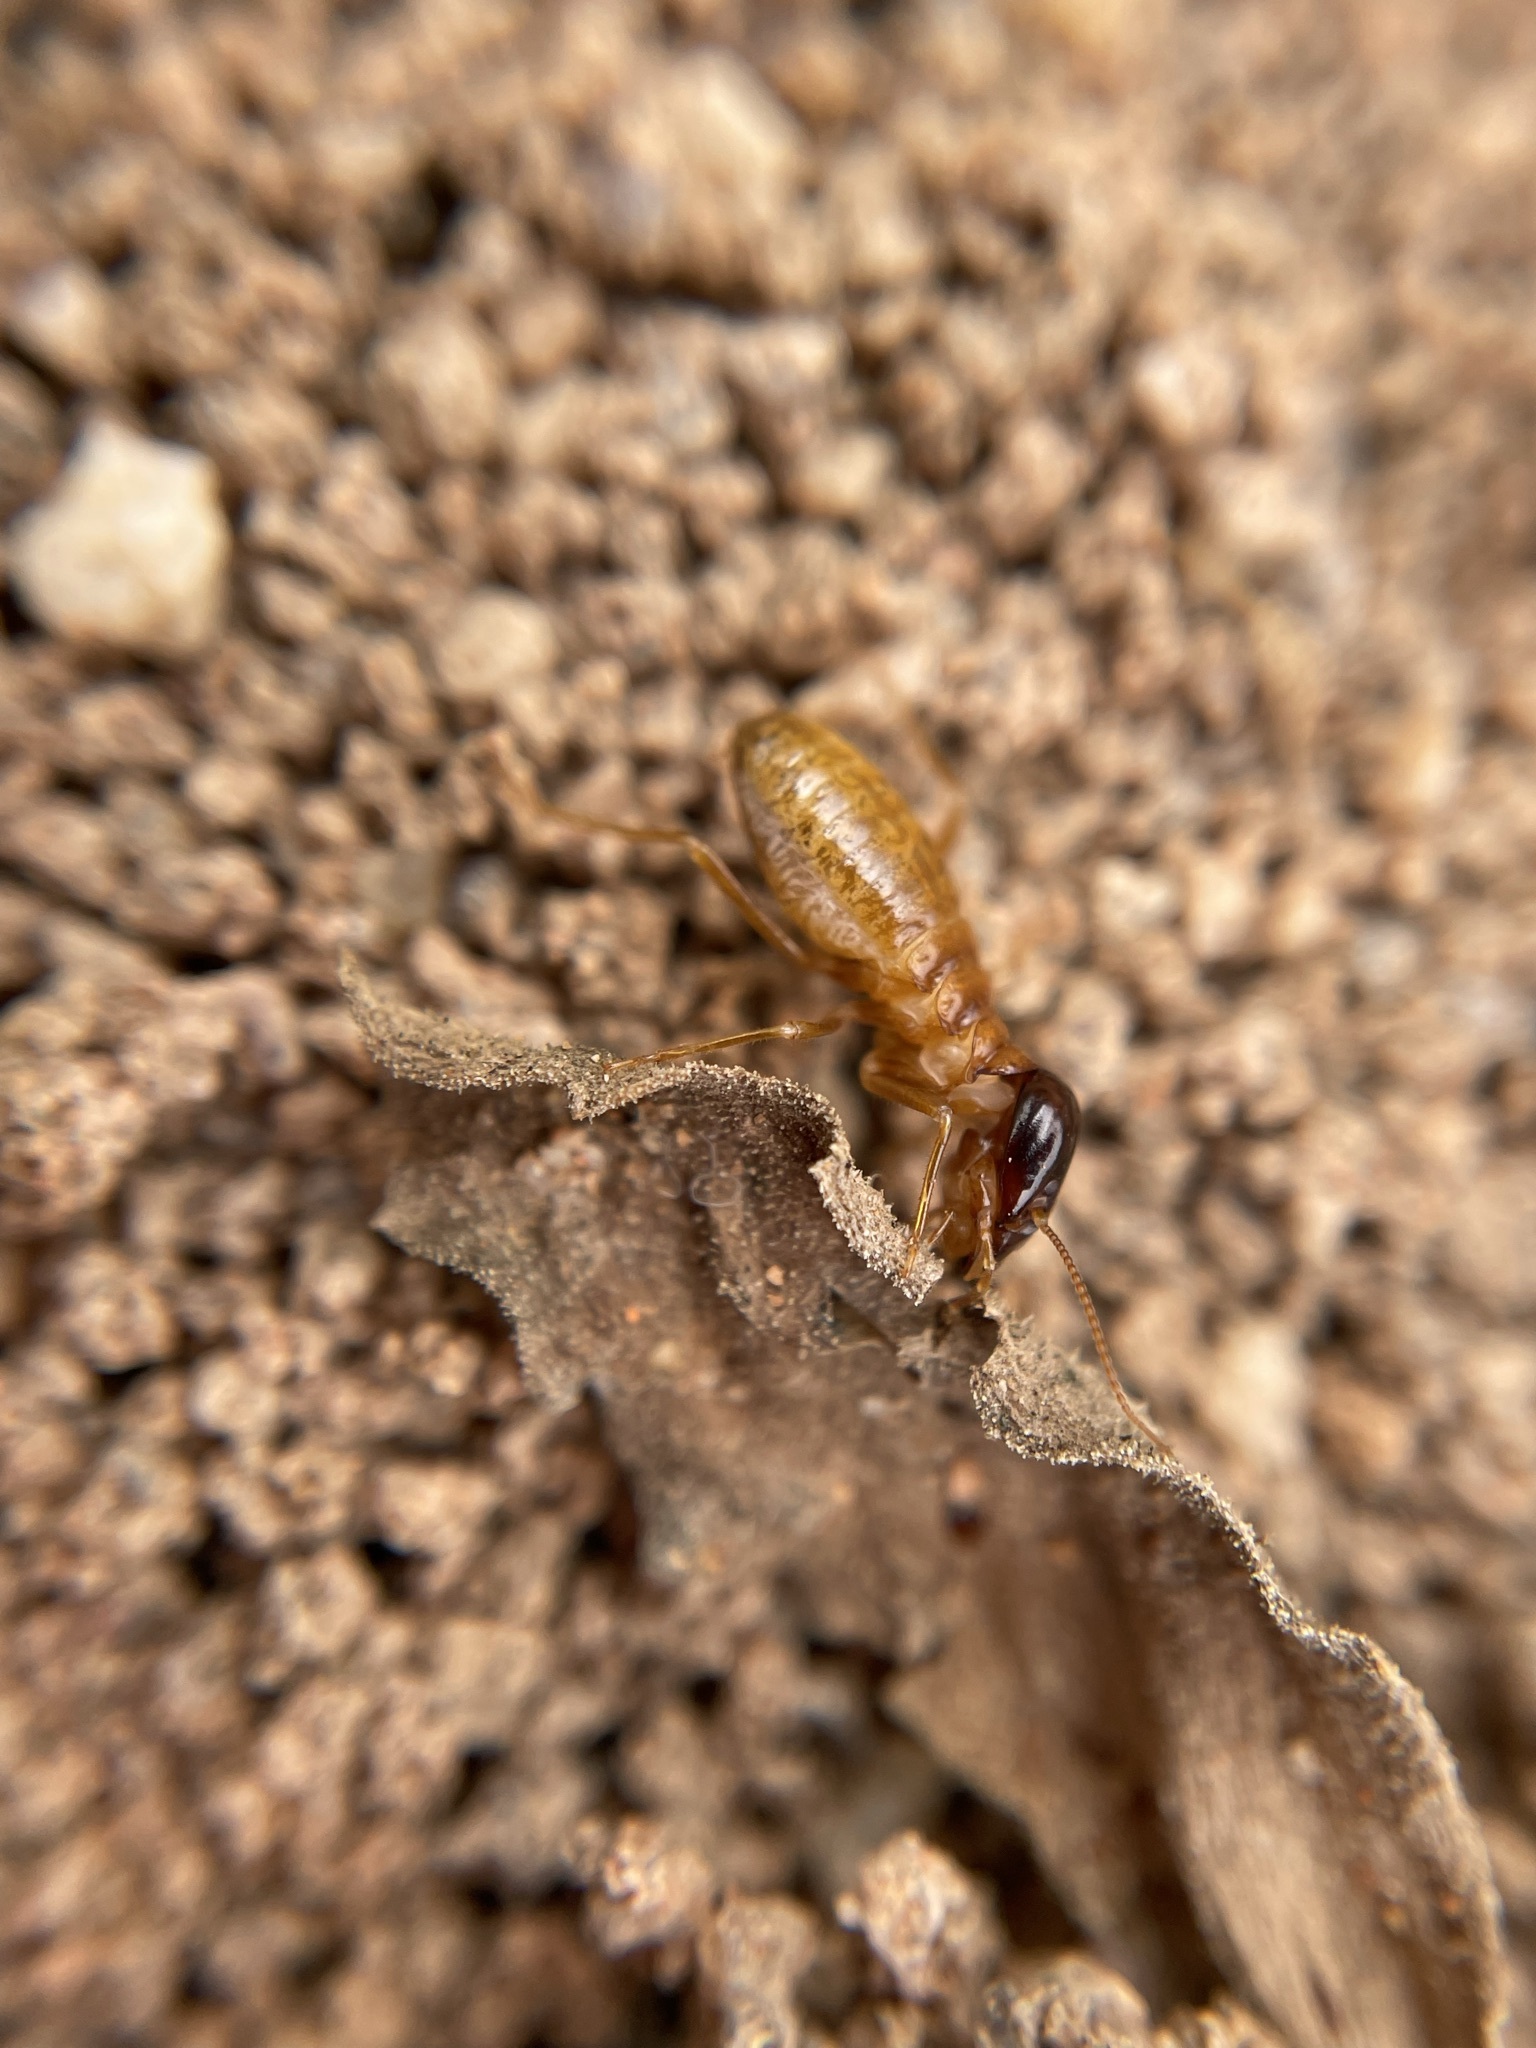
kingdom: Animalia
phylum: Arthropoda
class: Insecta
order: Blattodea
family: Hodotermitidae
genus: Microhodotermes
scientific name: Microhodotermes viator
